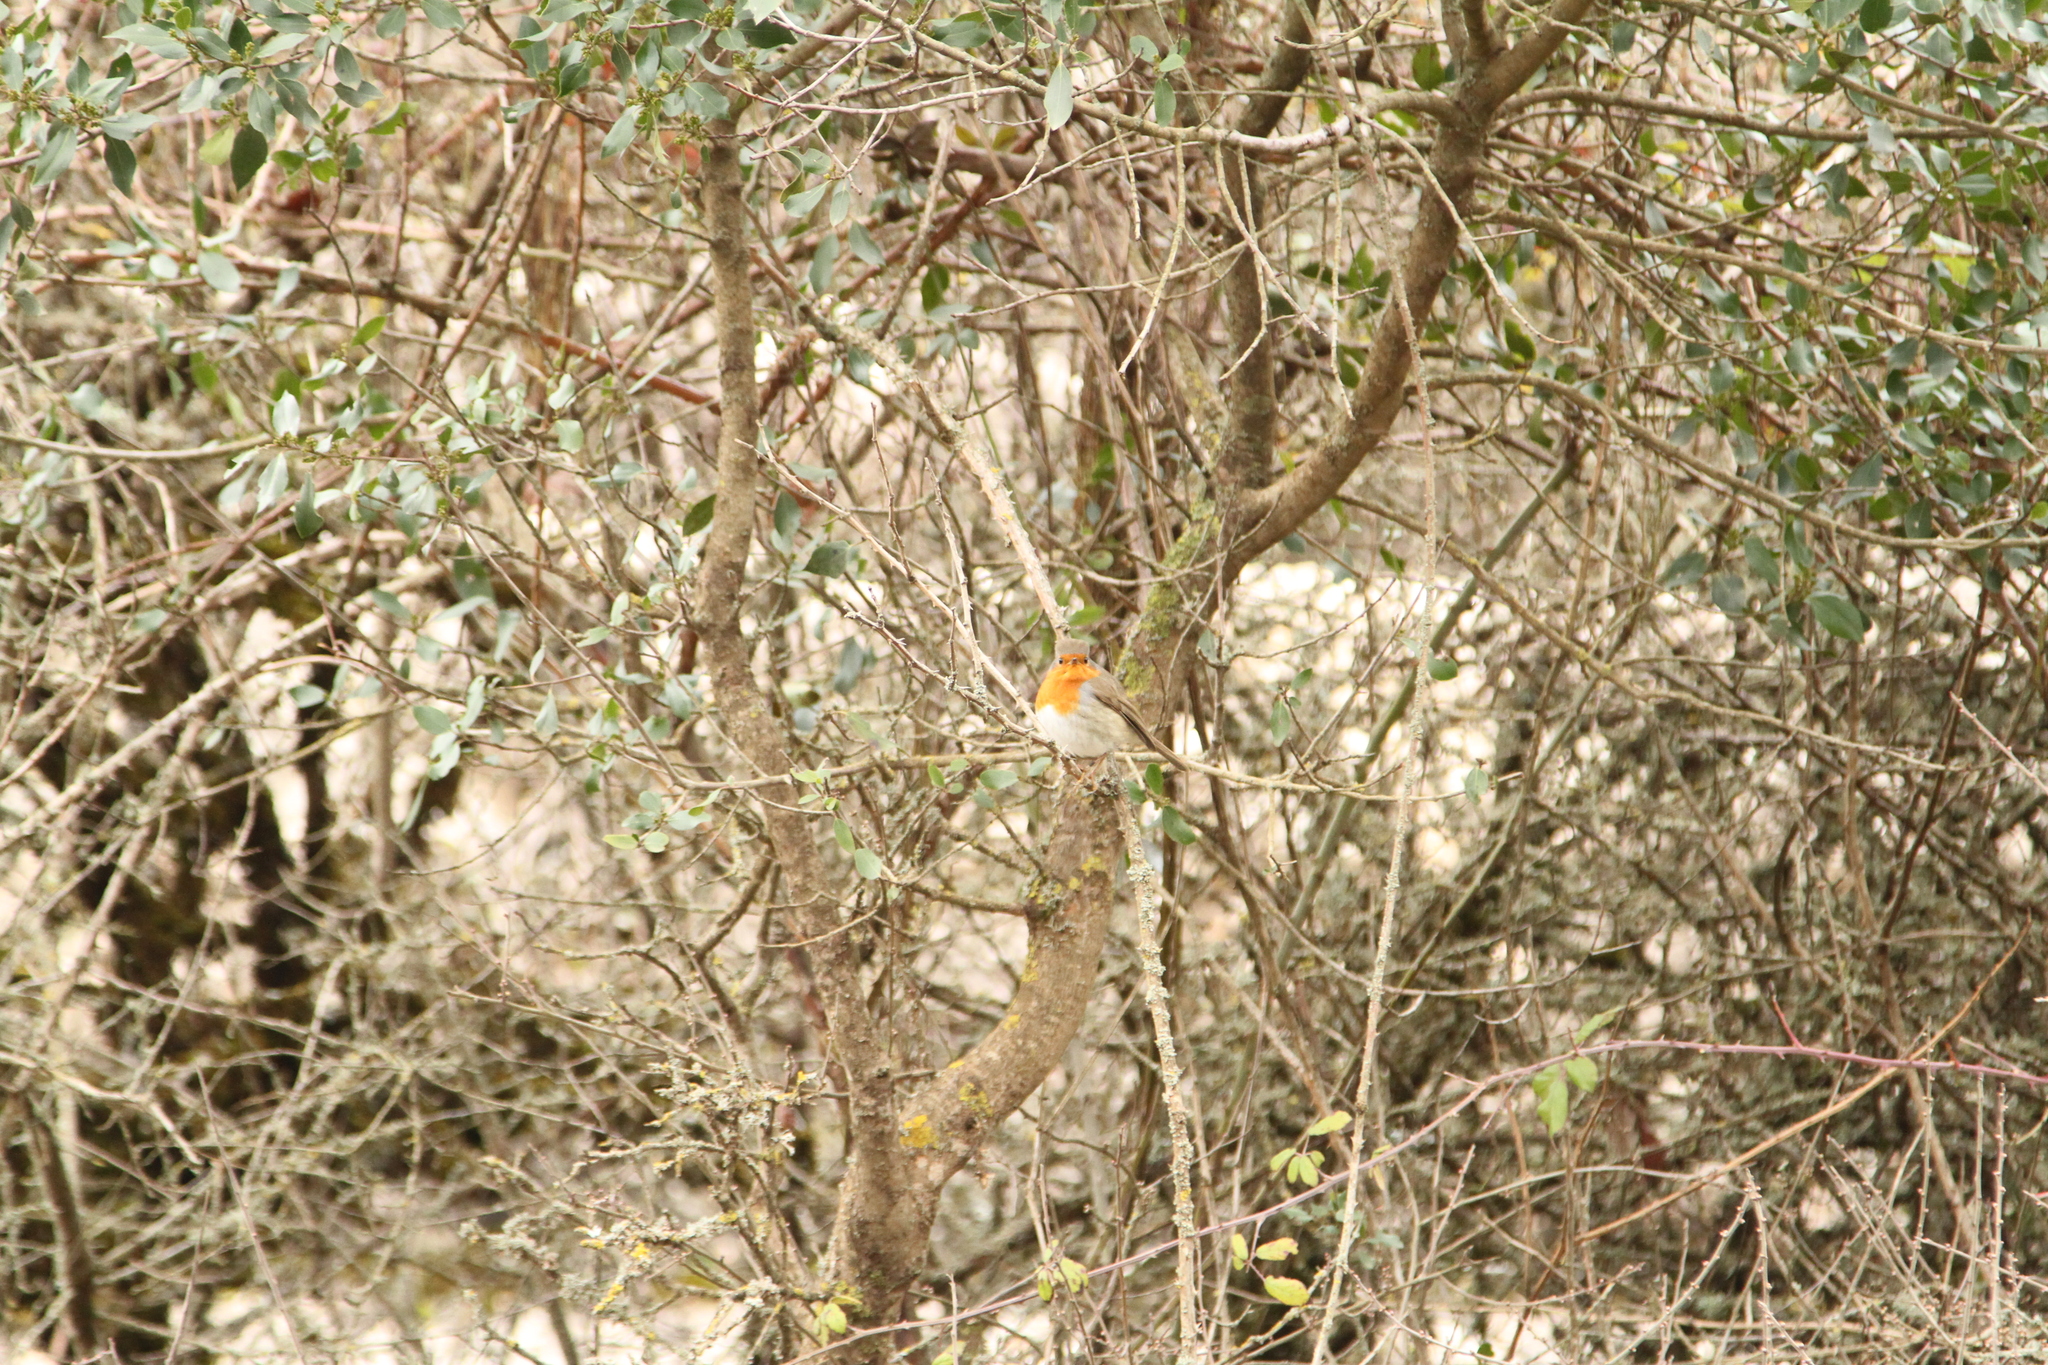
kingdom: Animalia
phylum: Chordata
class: Aves
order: Passeriformes
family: Muscicapidae
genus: Erithacus
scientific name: Erithacus rubecula
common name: European robin
